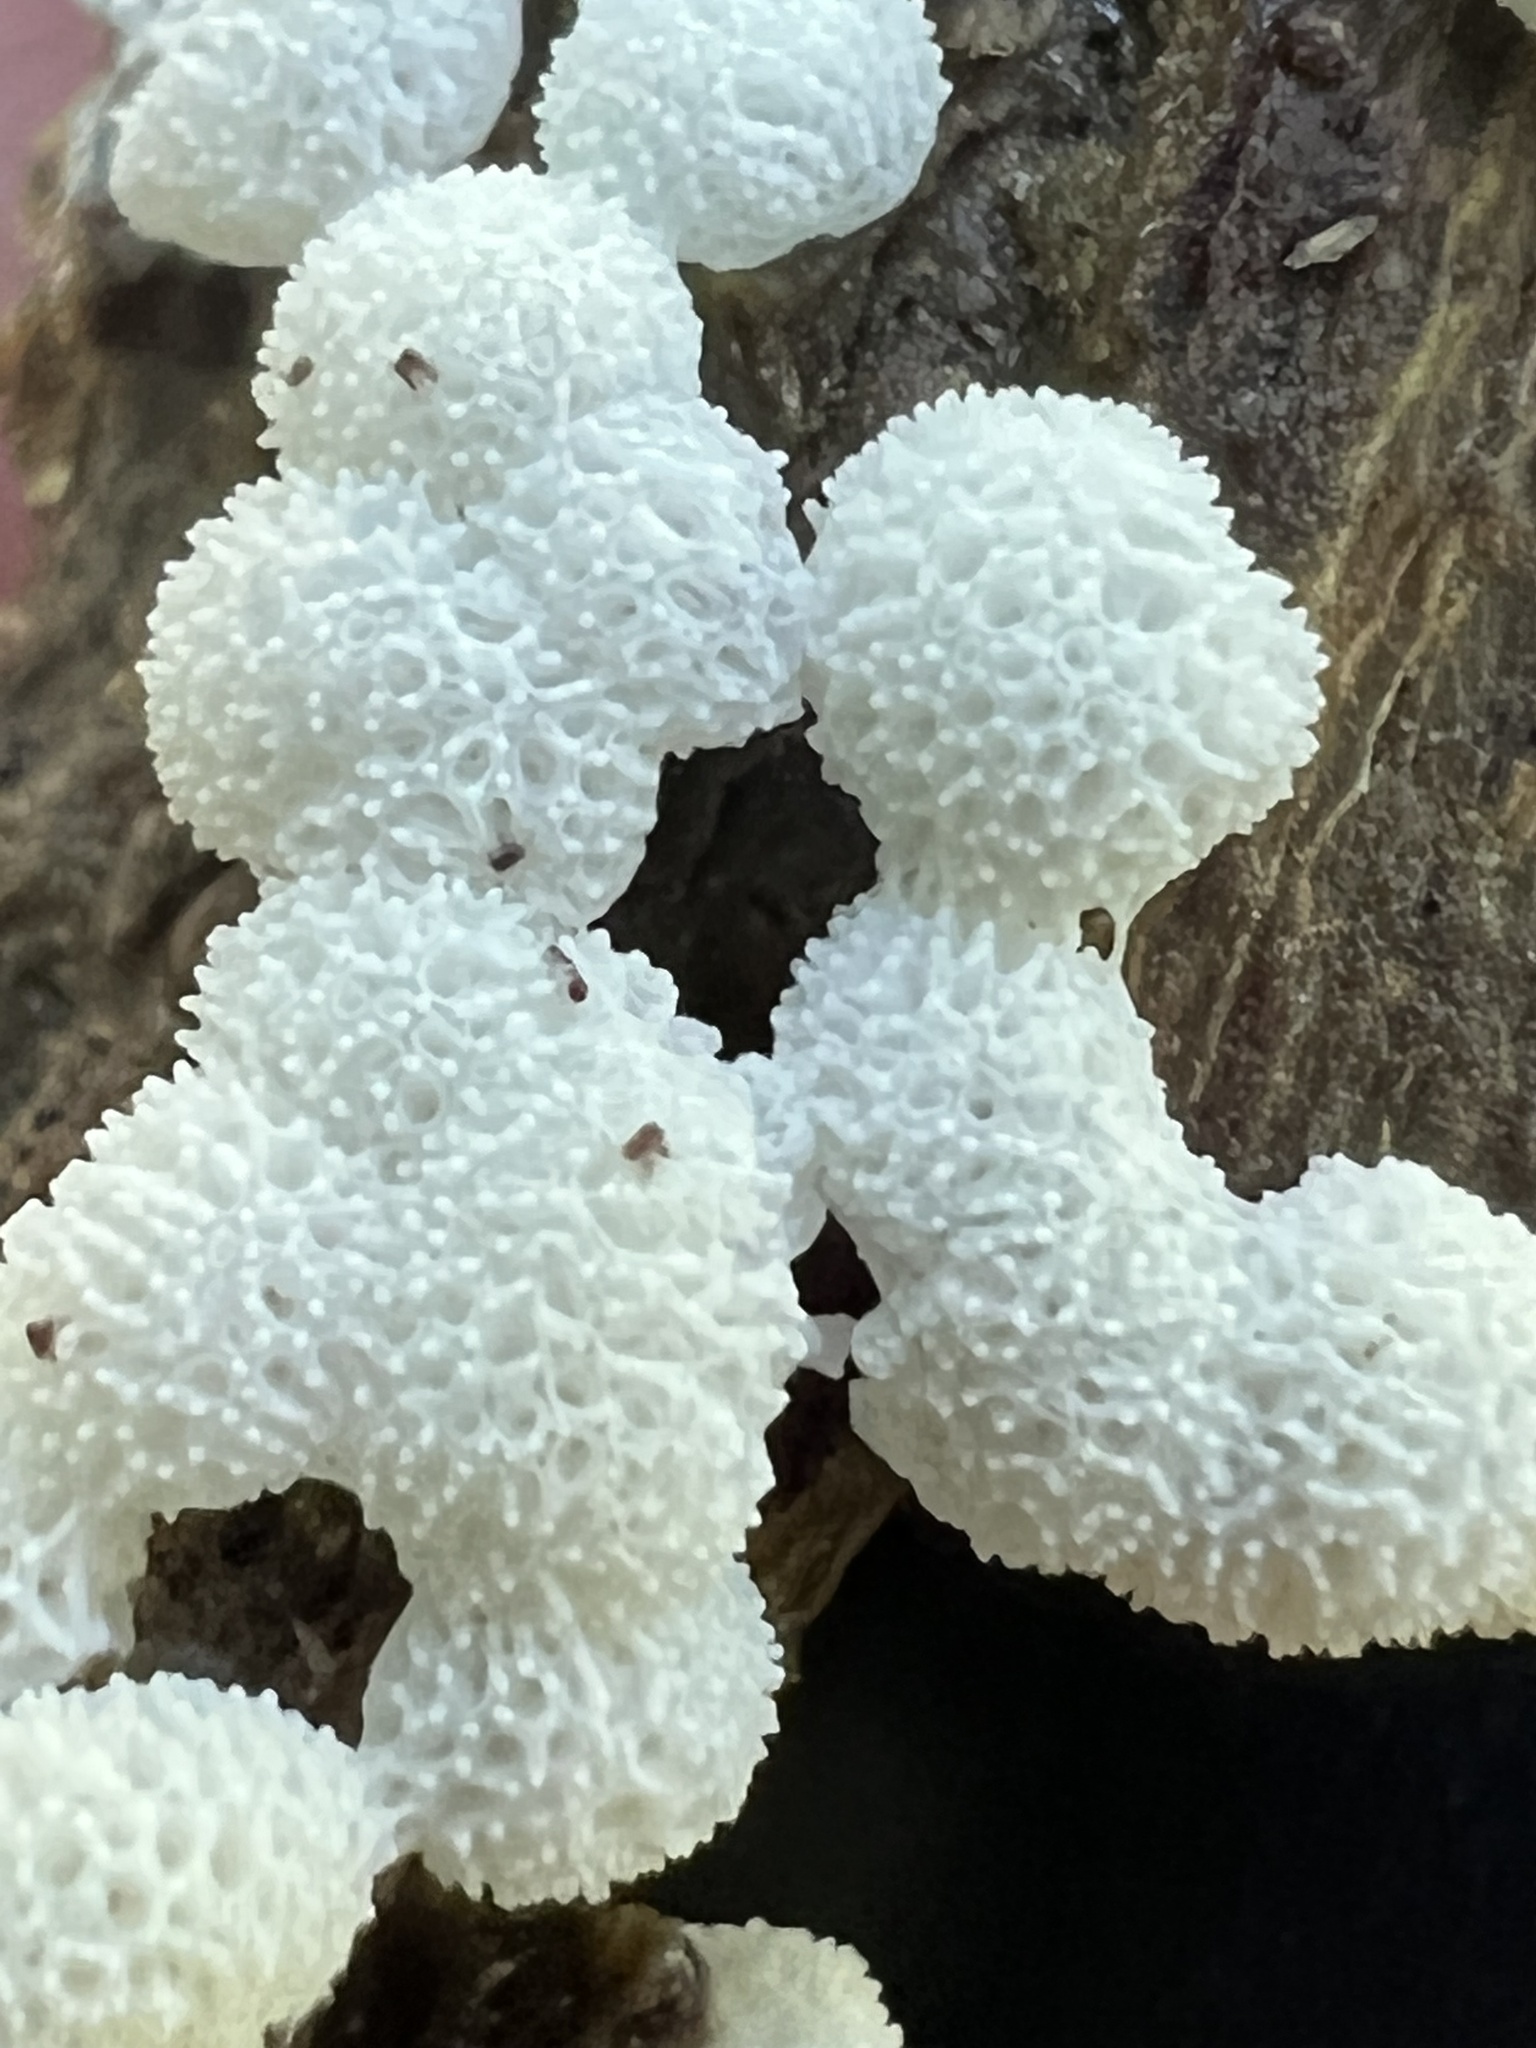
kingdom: Protozoa
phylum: Mycetozoa
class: Protosteliomycetes
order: Ceratiomyxales
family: Ceratiomyxaceae
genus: Ceratiomyxa
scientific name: Ceratiomyxa fruticulosa
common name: Honeycomb coral slime mold
